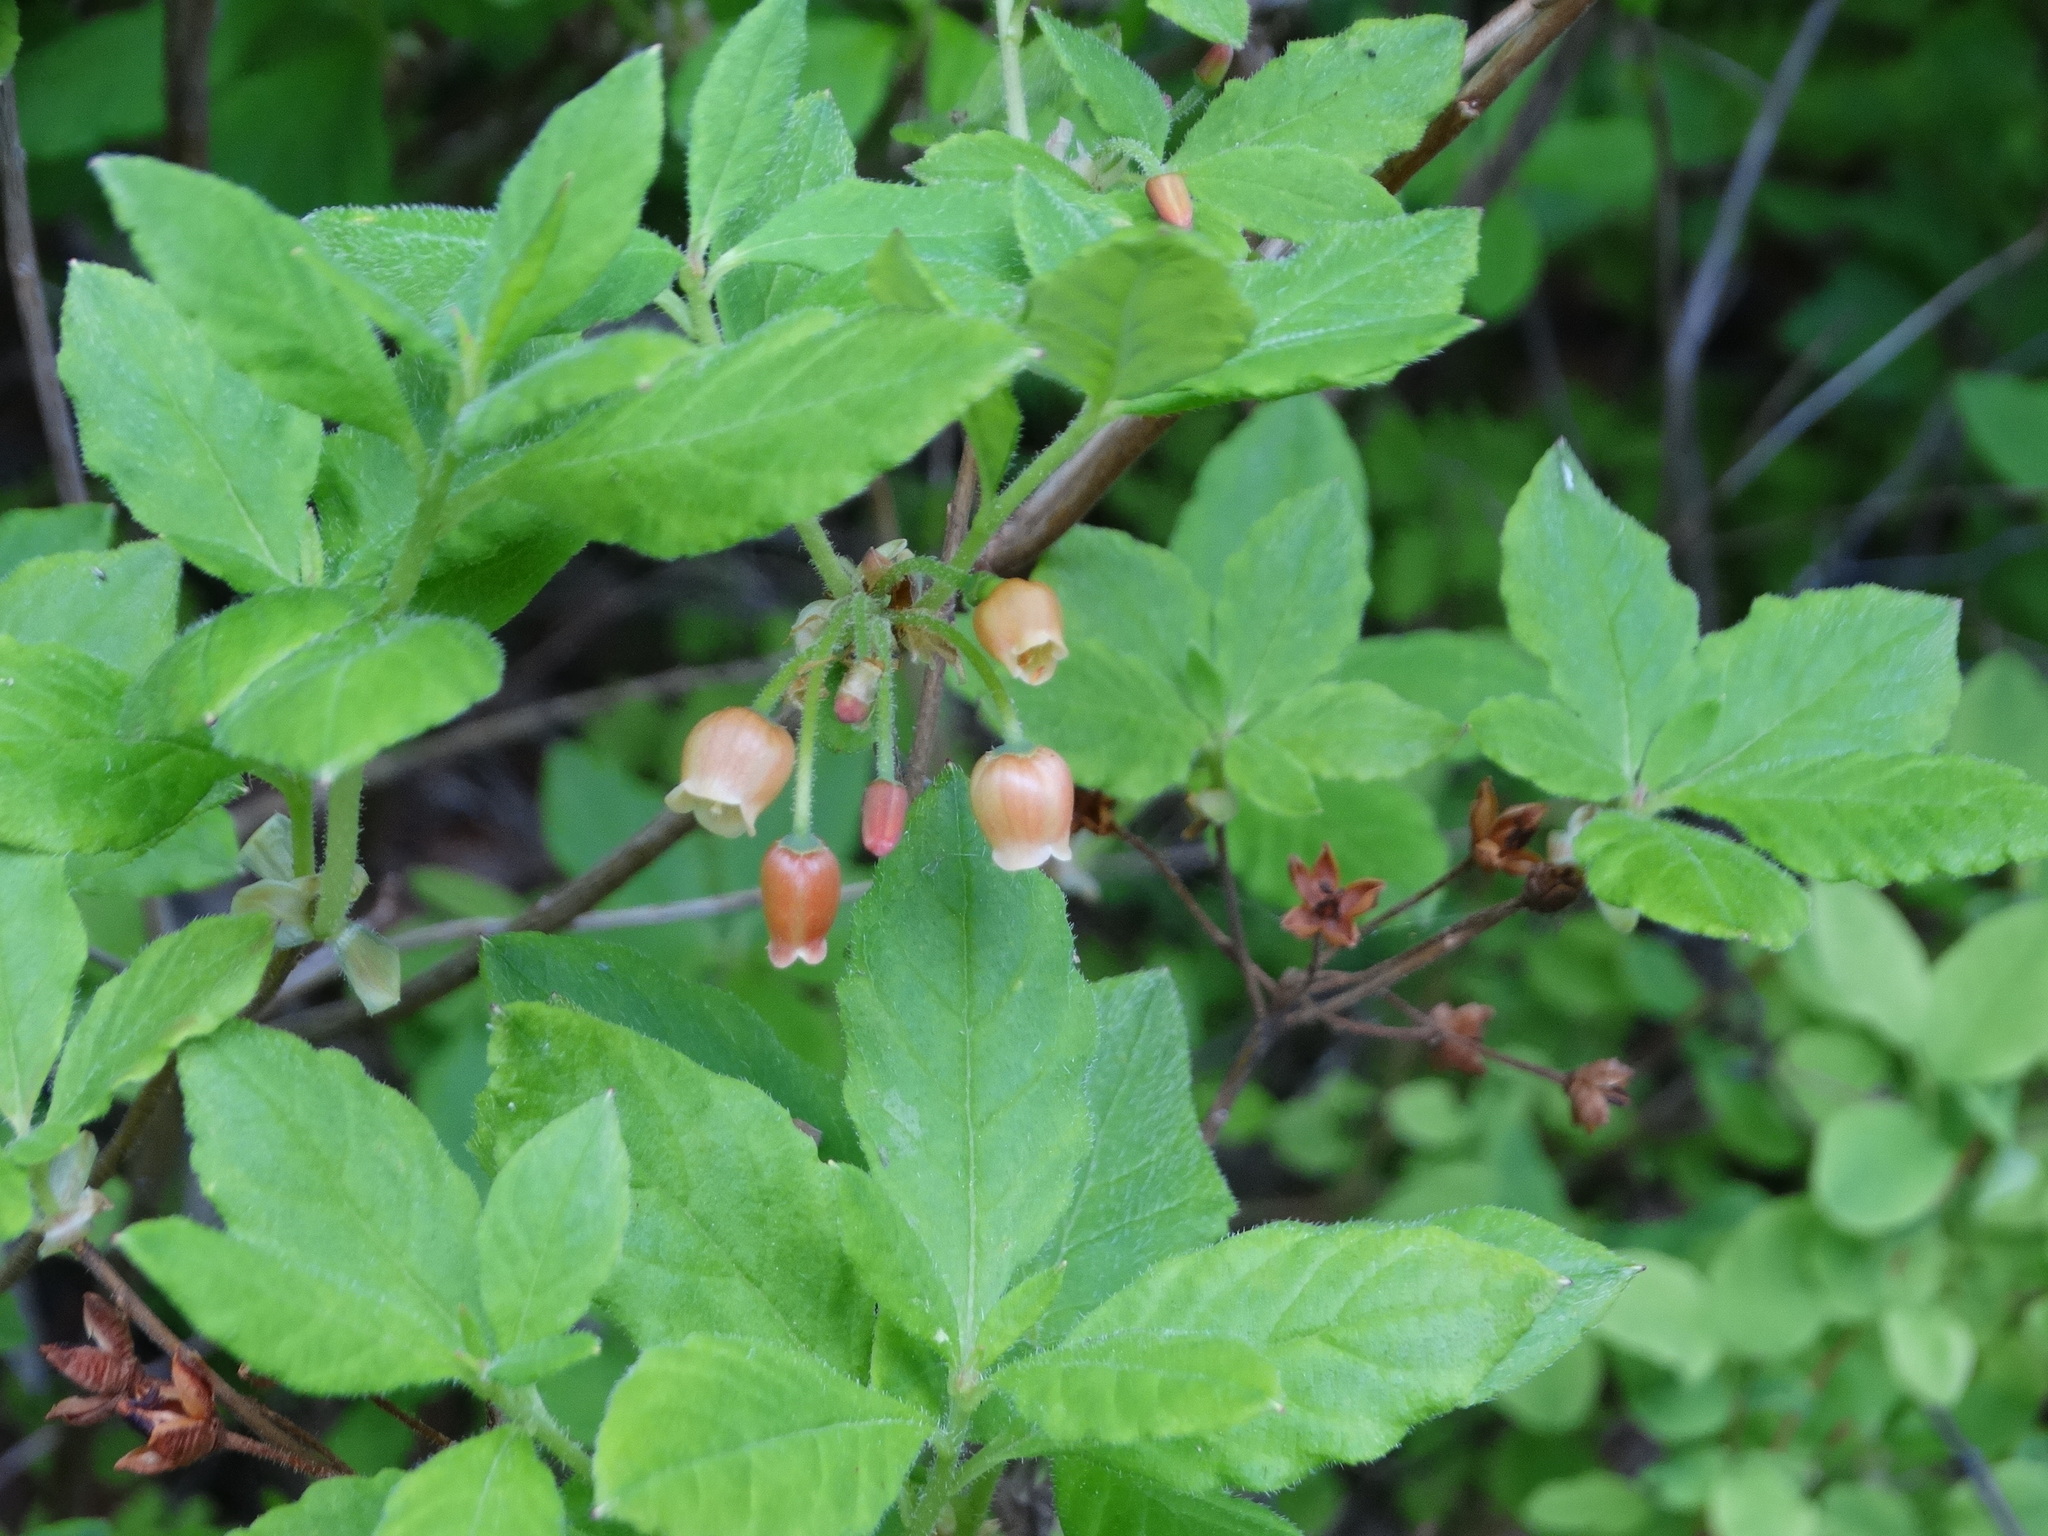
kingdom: Plantae
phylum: Tracheophyta
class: Magnoliopsida
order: Ericales
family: Ericaceae
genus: Rhododendron
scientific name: Rhododendron menziesii
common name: Pacific menziesia
